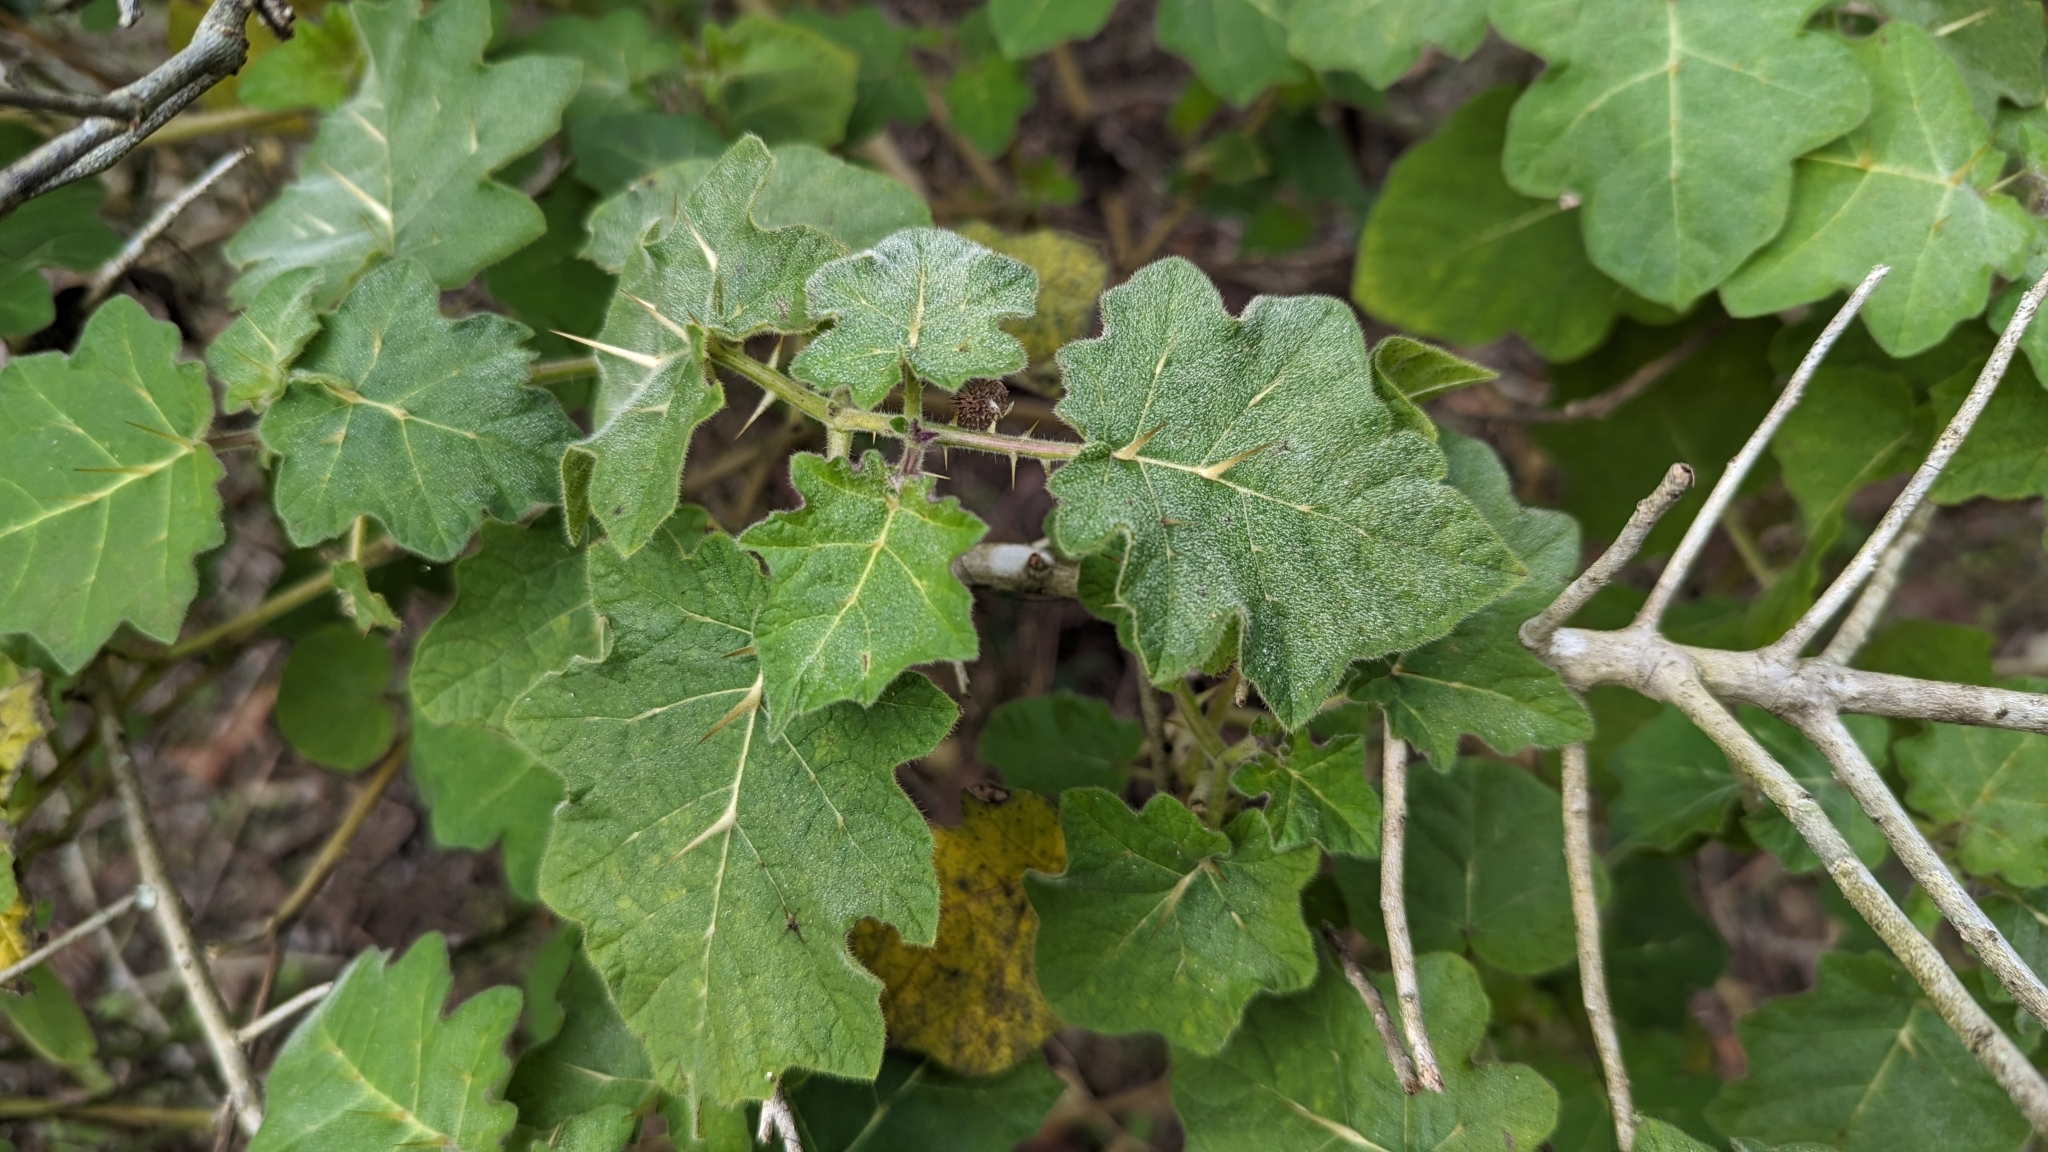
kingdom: Plantae
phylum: Tracheophyta
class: Magnoliopsida
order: Solanales
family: Solanaceae
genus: Solanum
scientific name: Solanum viarum
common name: Tropical soda apple
